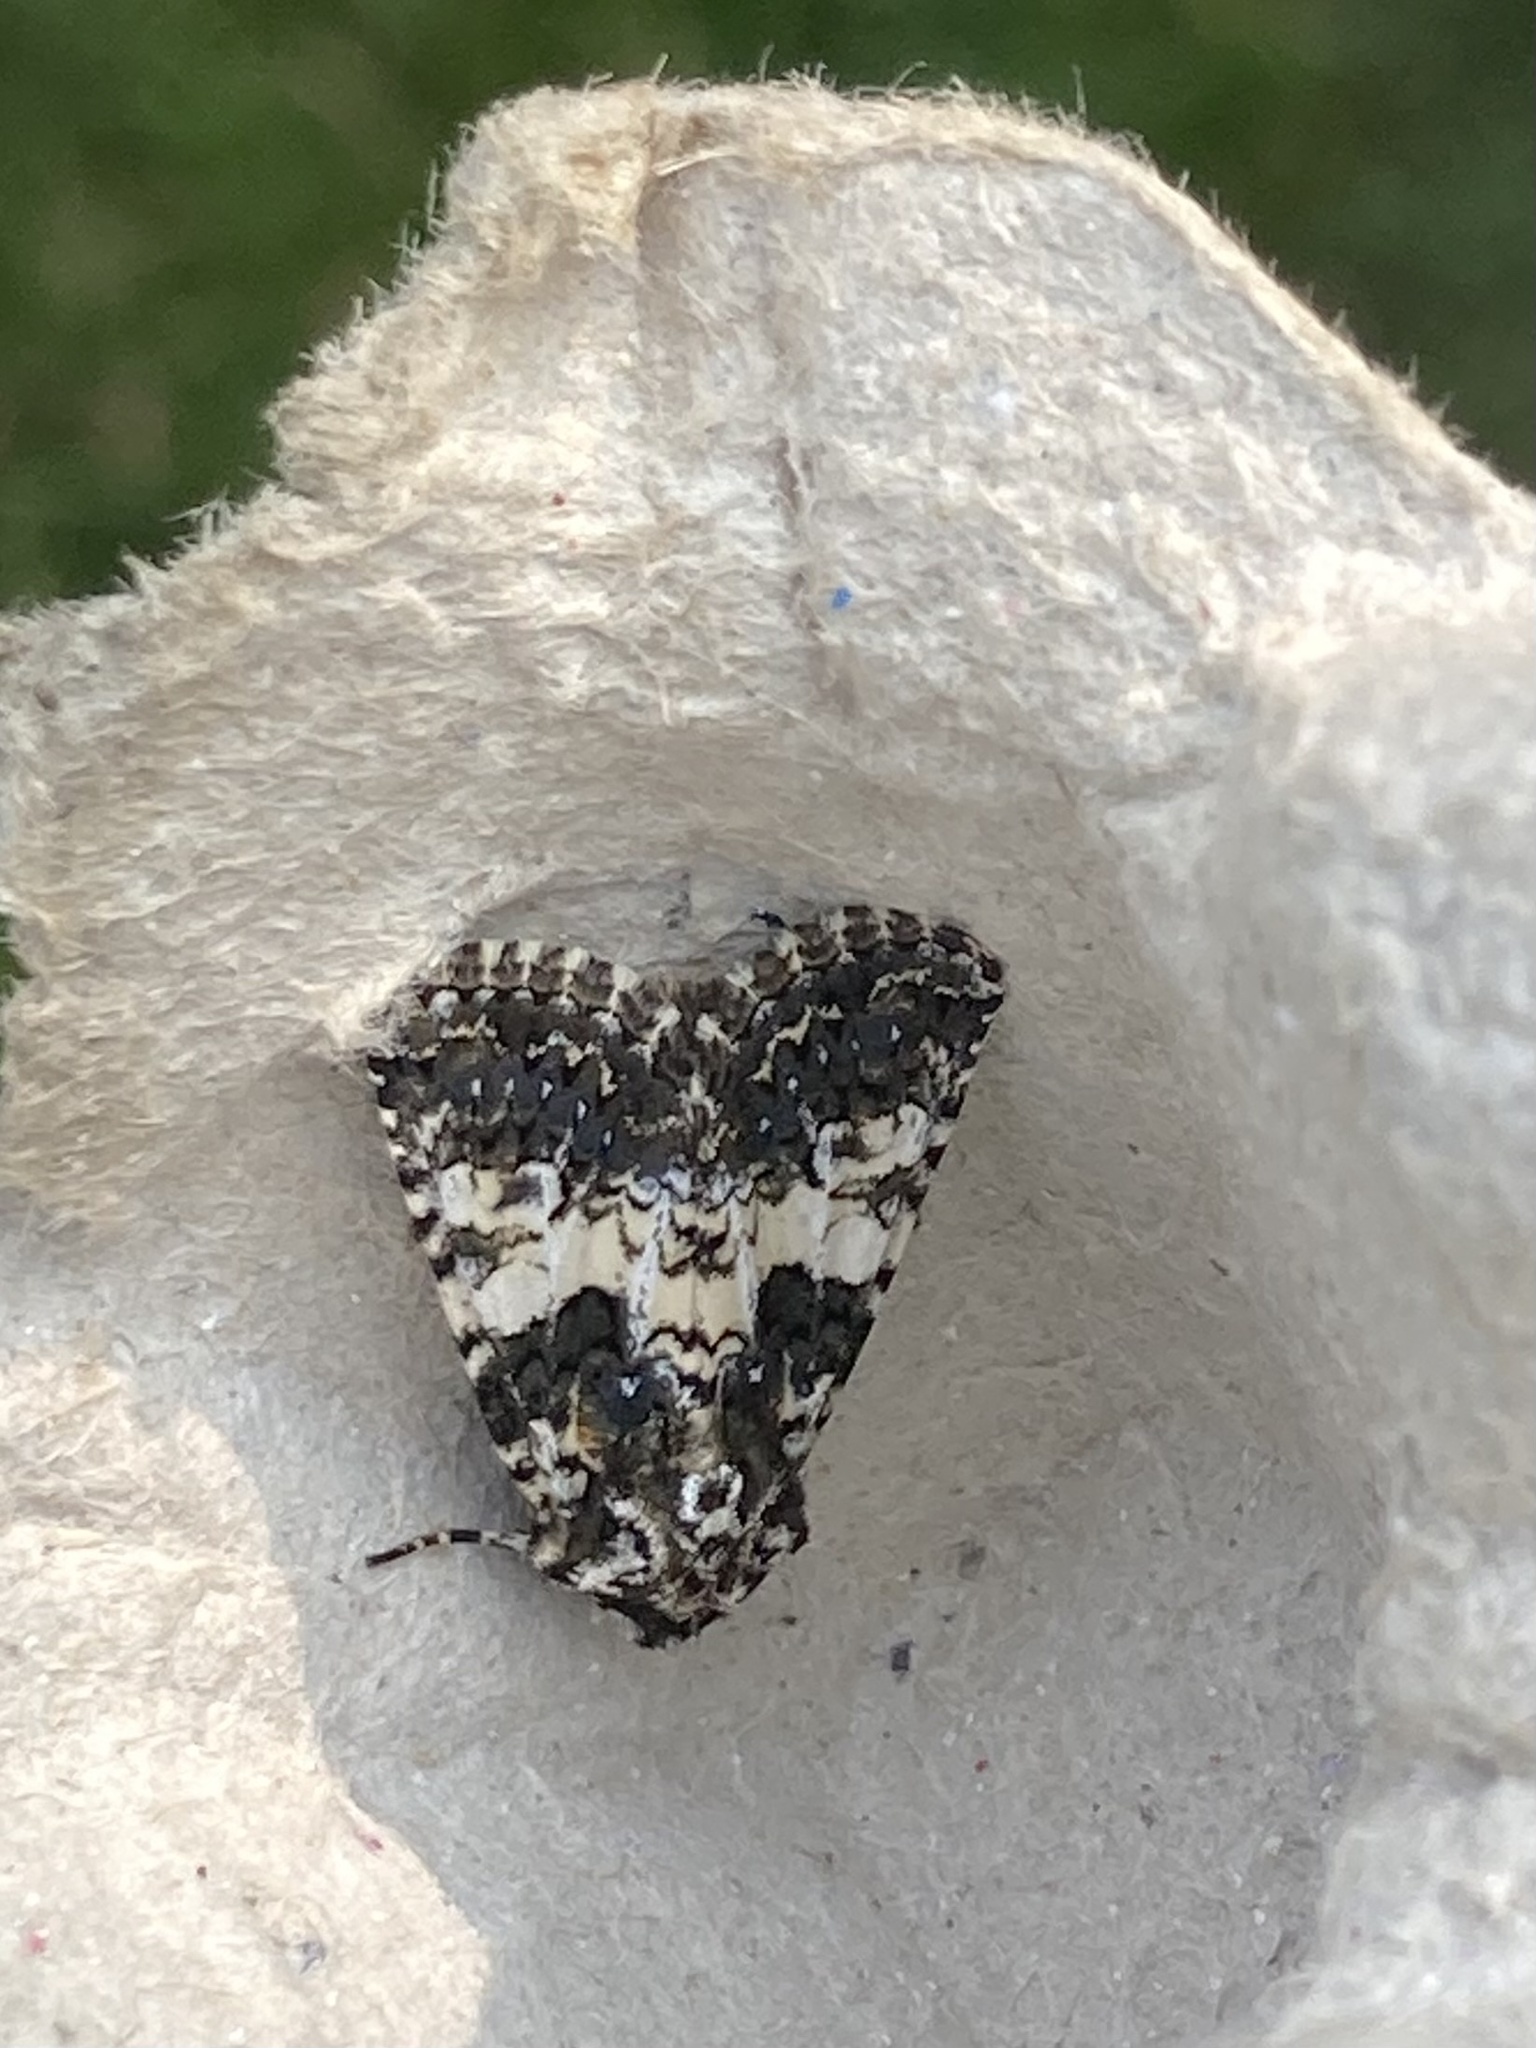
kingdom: Animalia
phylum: Arthropoda
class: Insecta
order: Lepidoptera
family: Noctuidae
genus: Hadena
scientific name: Hadena compta
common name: Varied coronet
